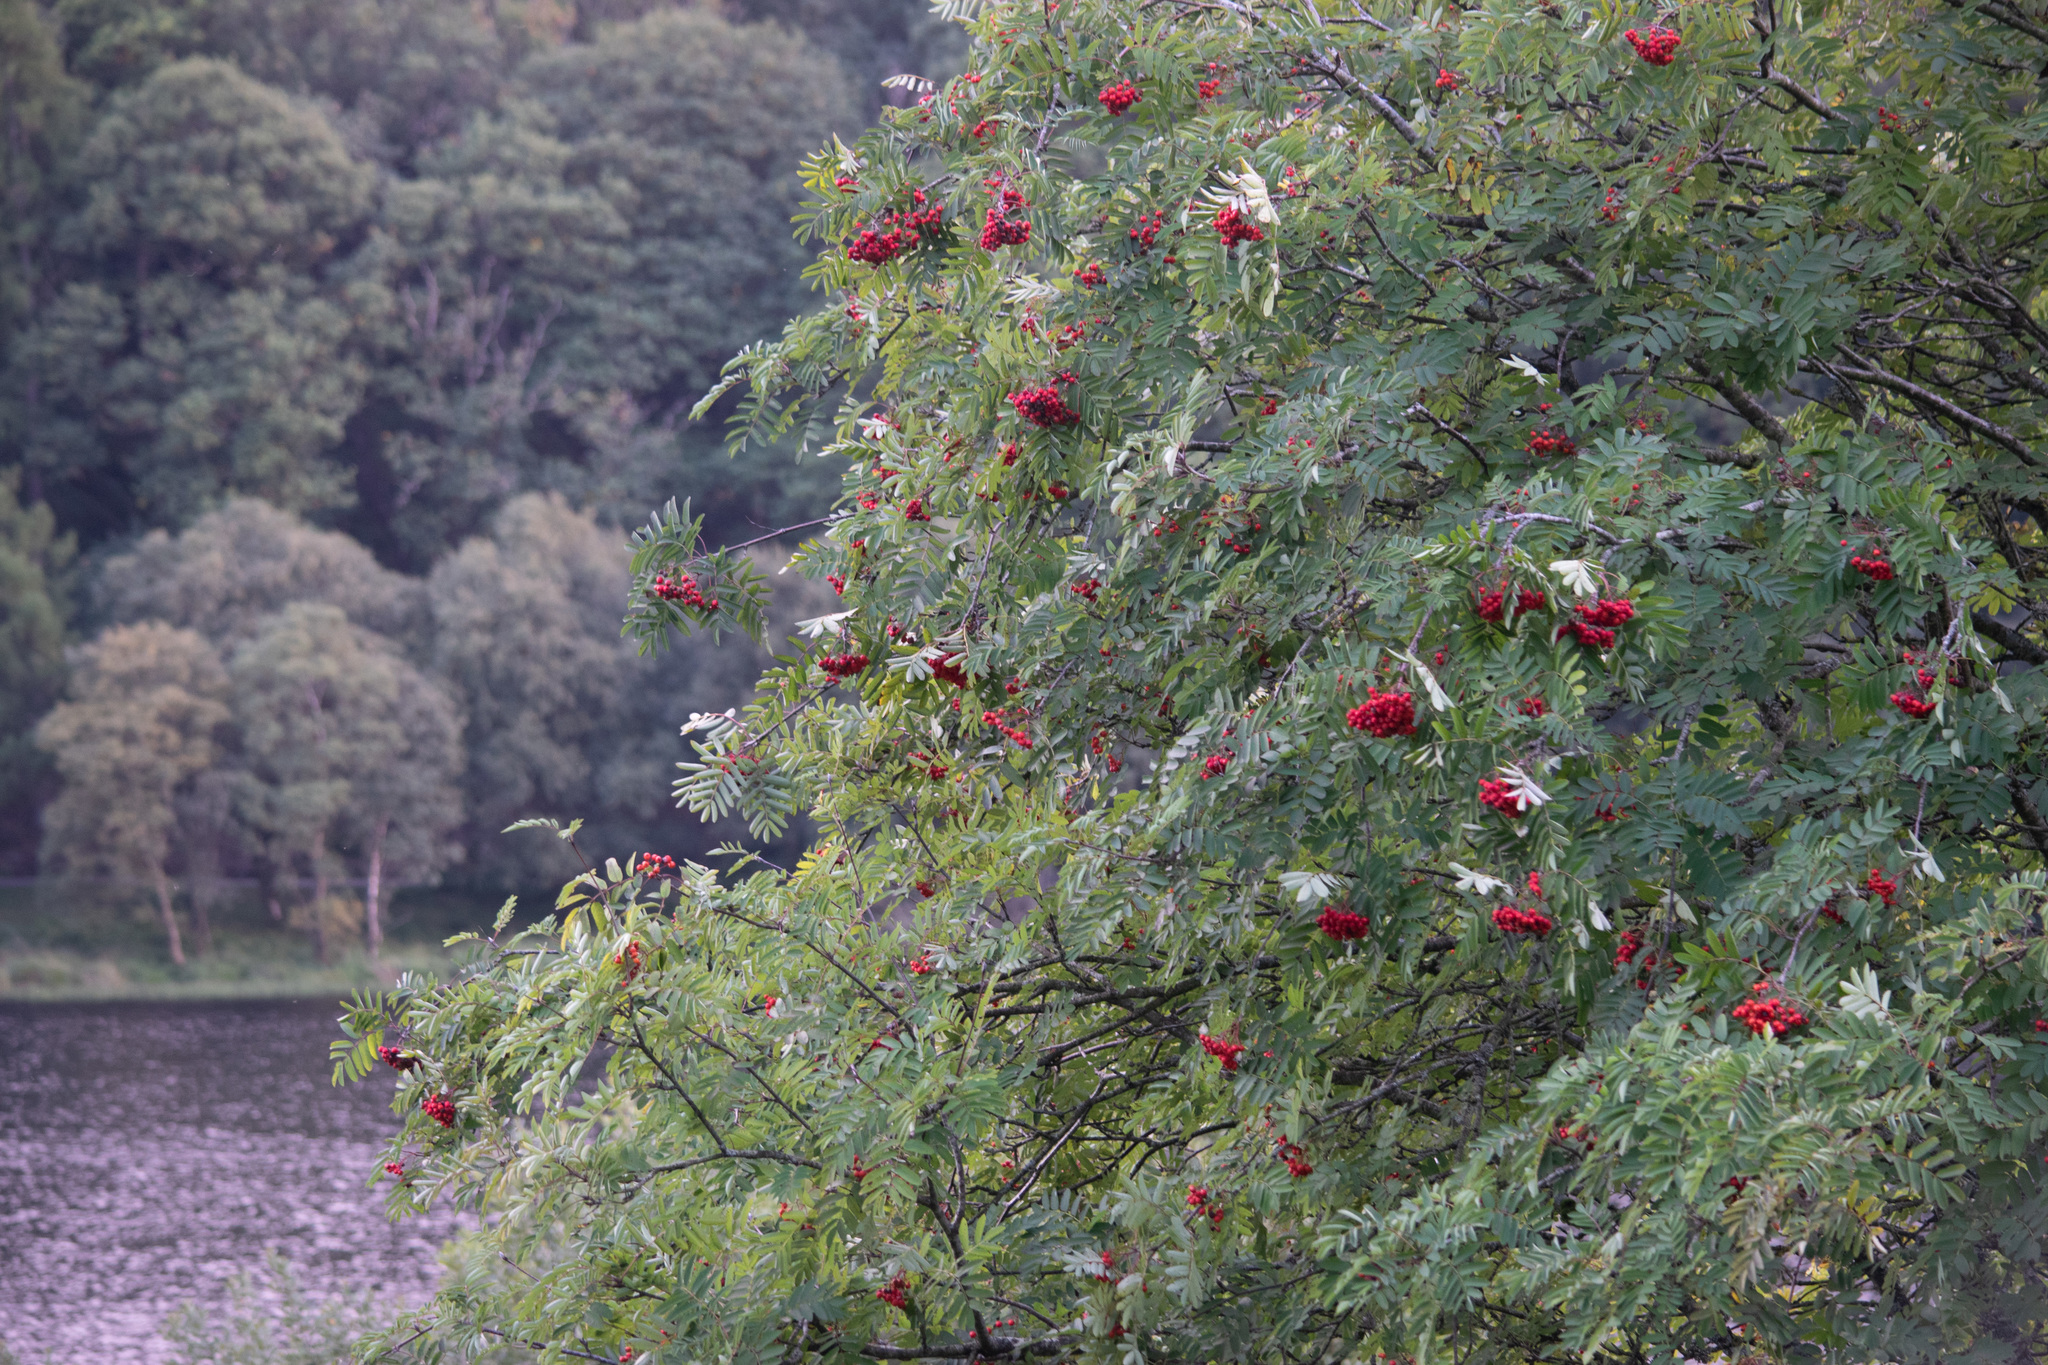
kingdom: Plantae
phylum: Tracheophyta
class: Magnoliopsida
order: Rosales
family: Rosaceae
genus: Sorbus
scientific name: Sorbus aucuparia
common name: Rowan
